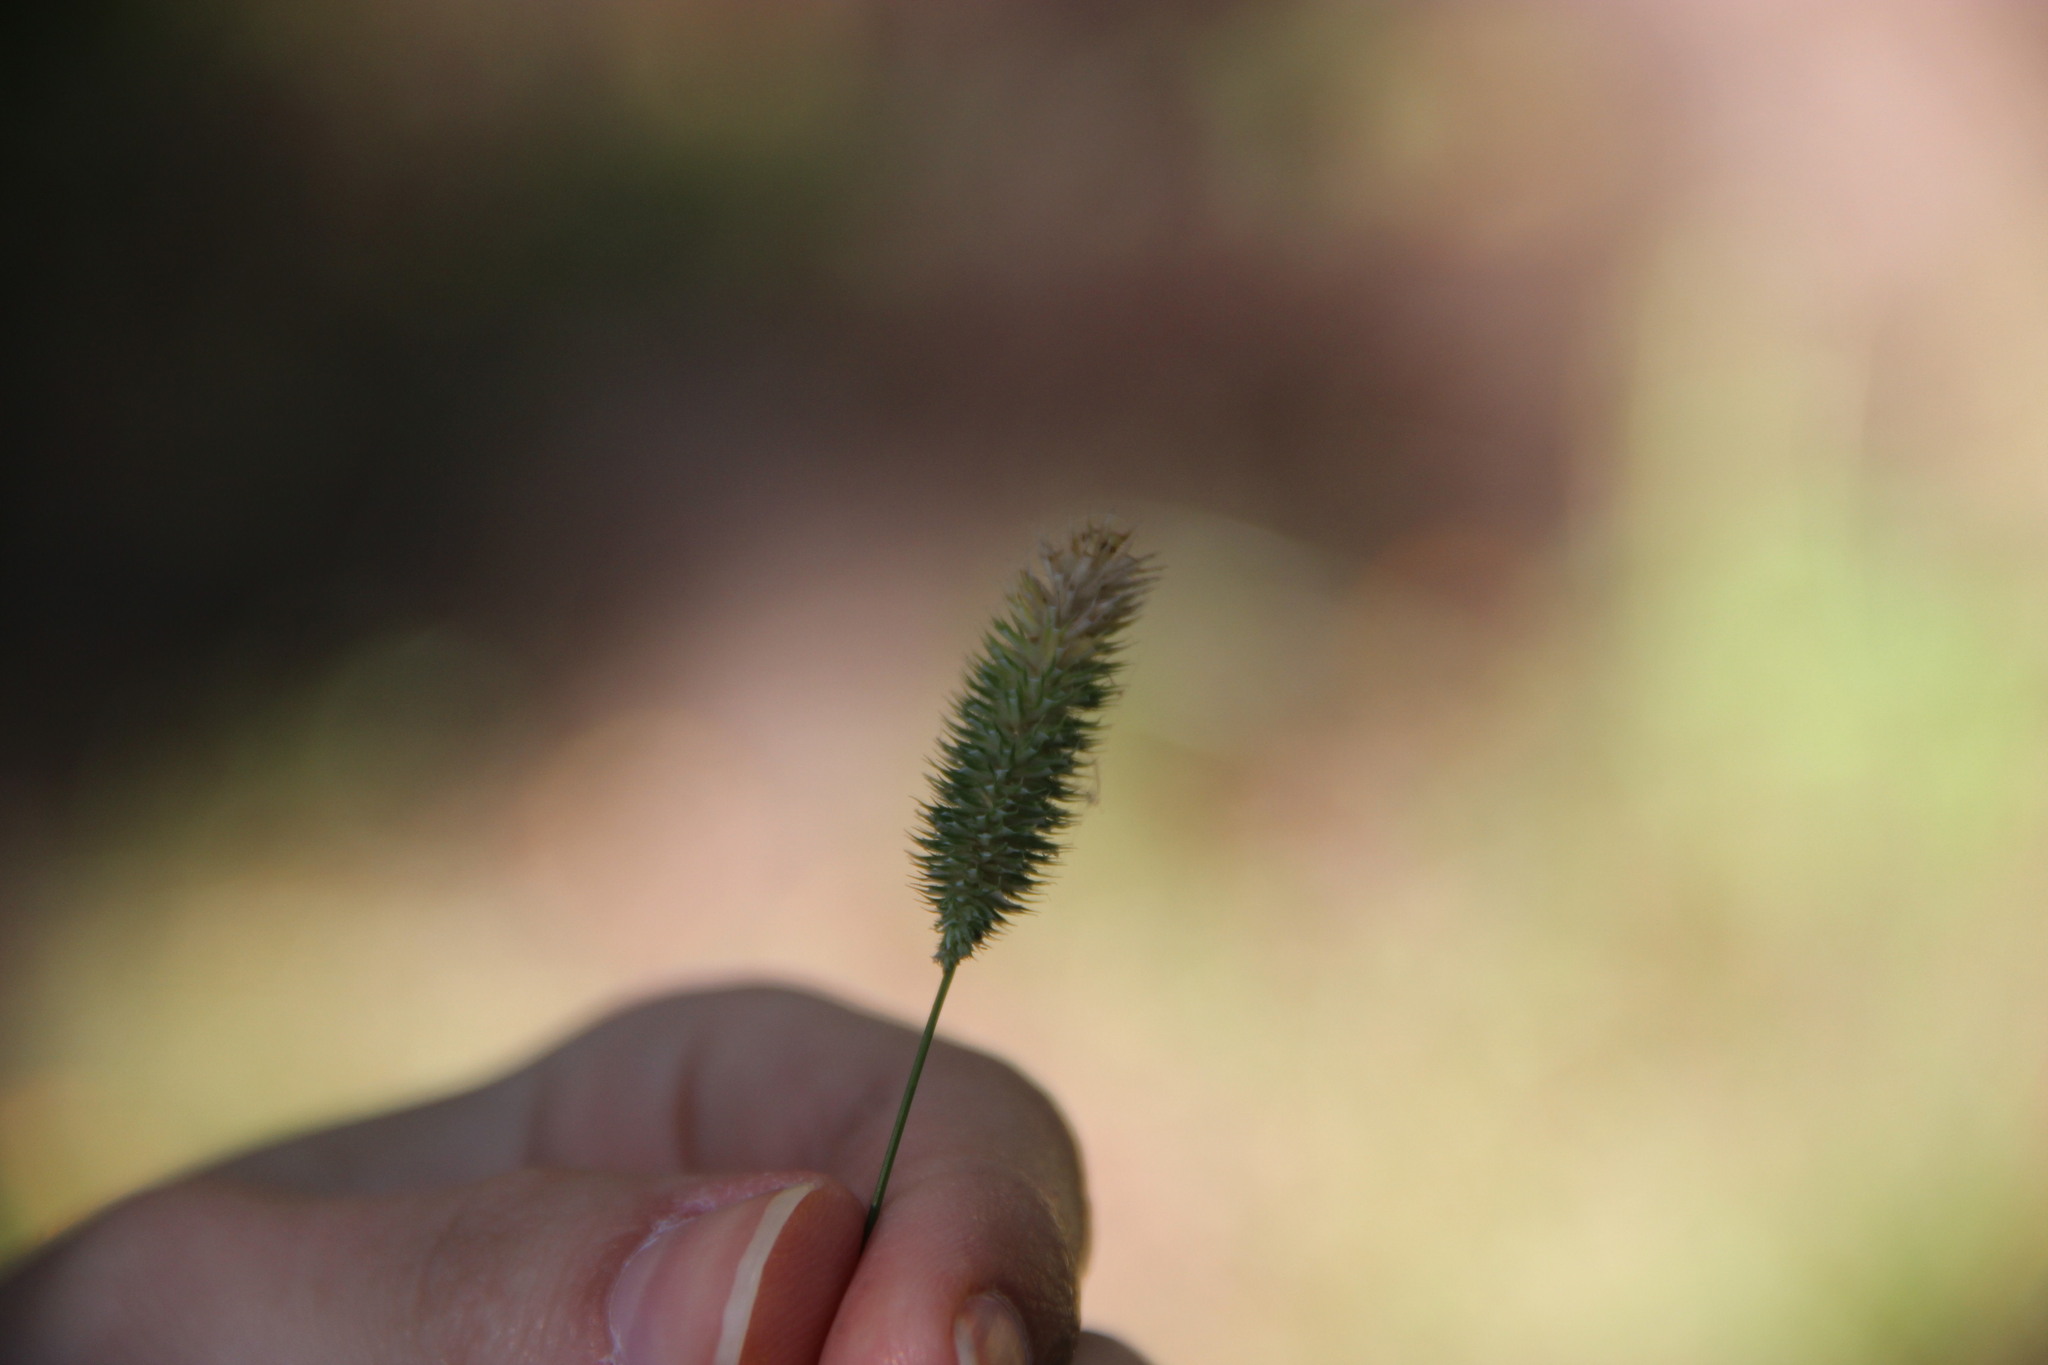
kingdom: Plantae
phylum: Tracheophyta
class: Liliopsida
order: Poales
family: Poaceae
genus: Phleum
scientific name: Phleum pratense
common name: Timothy grass
